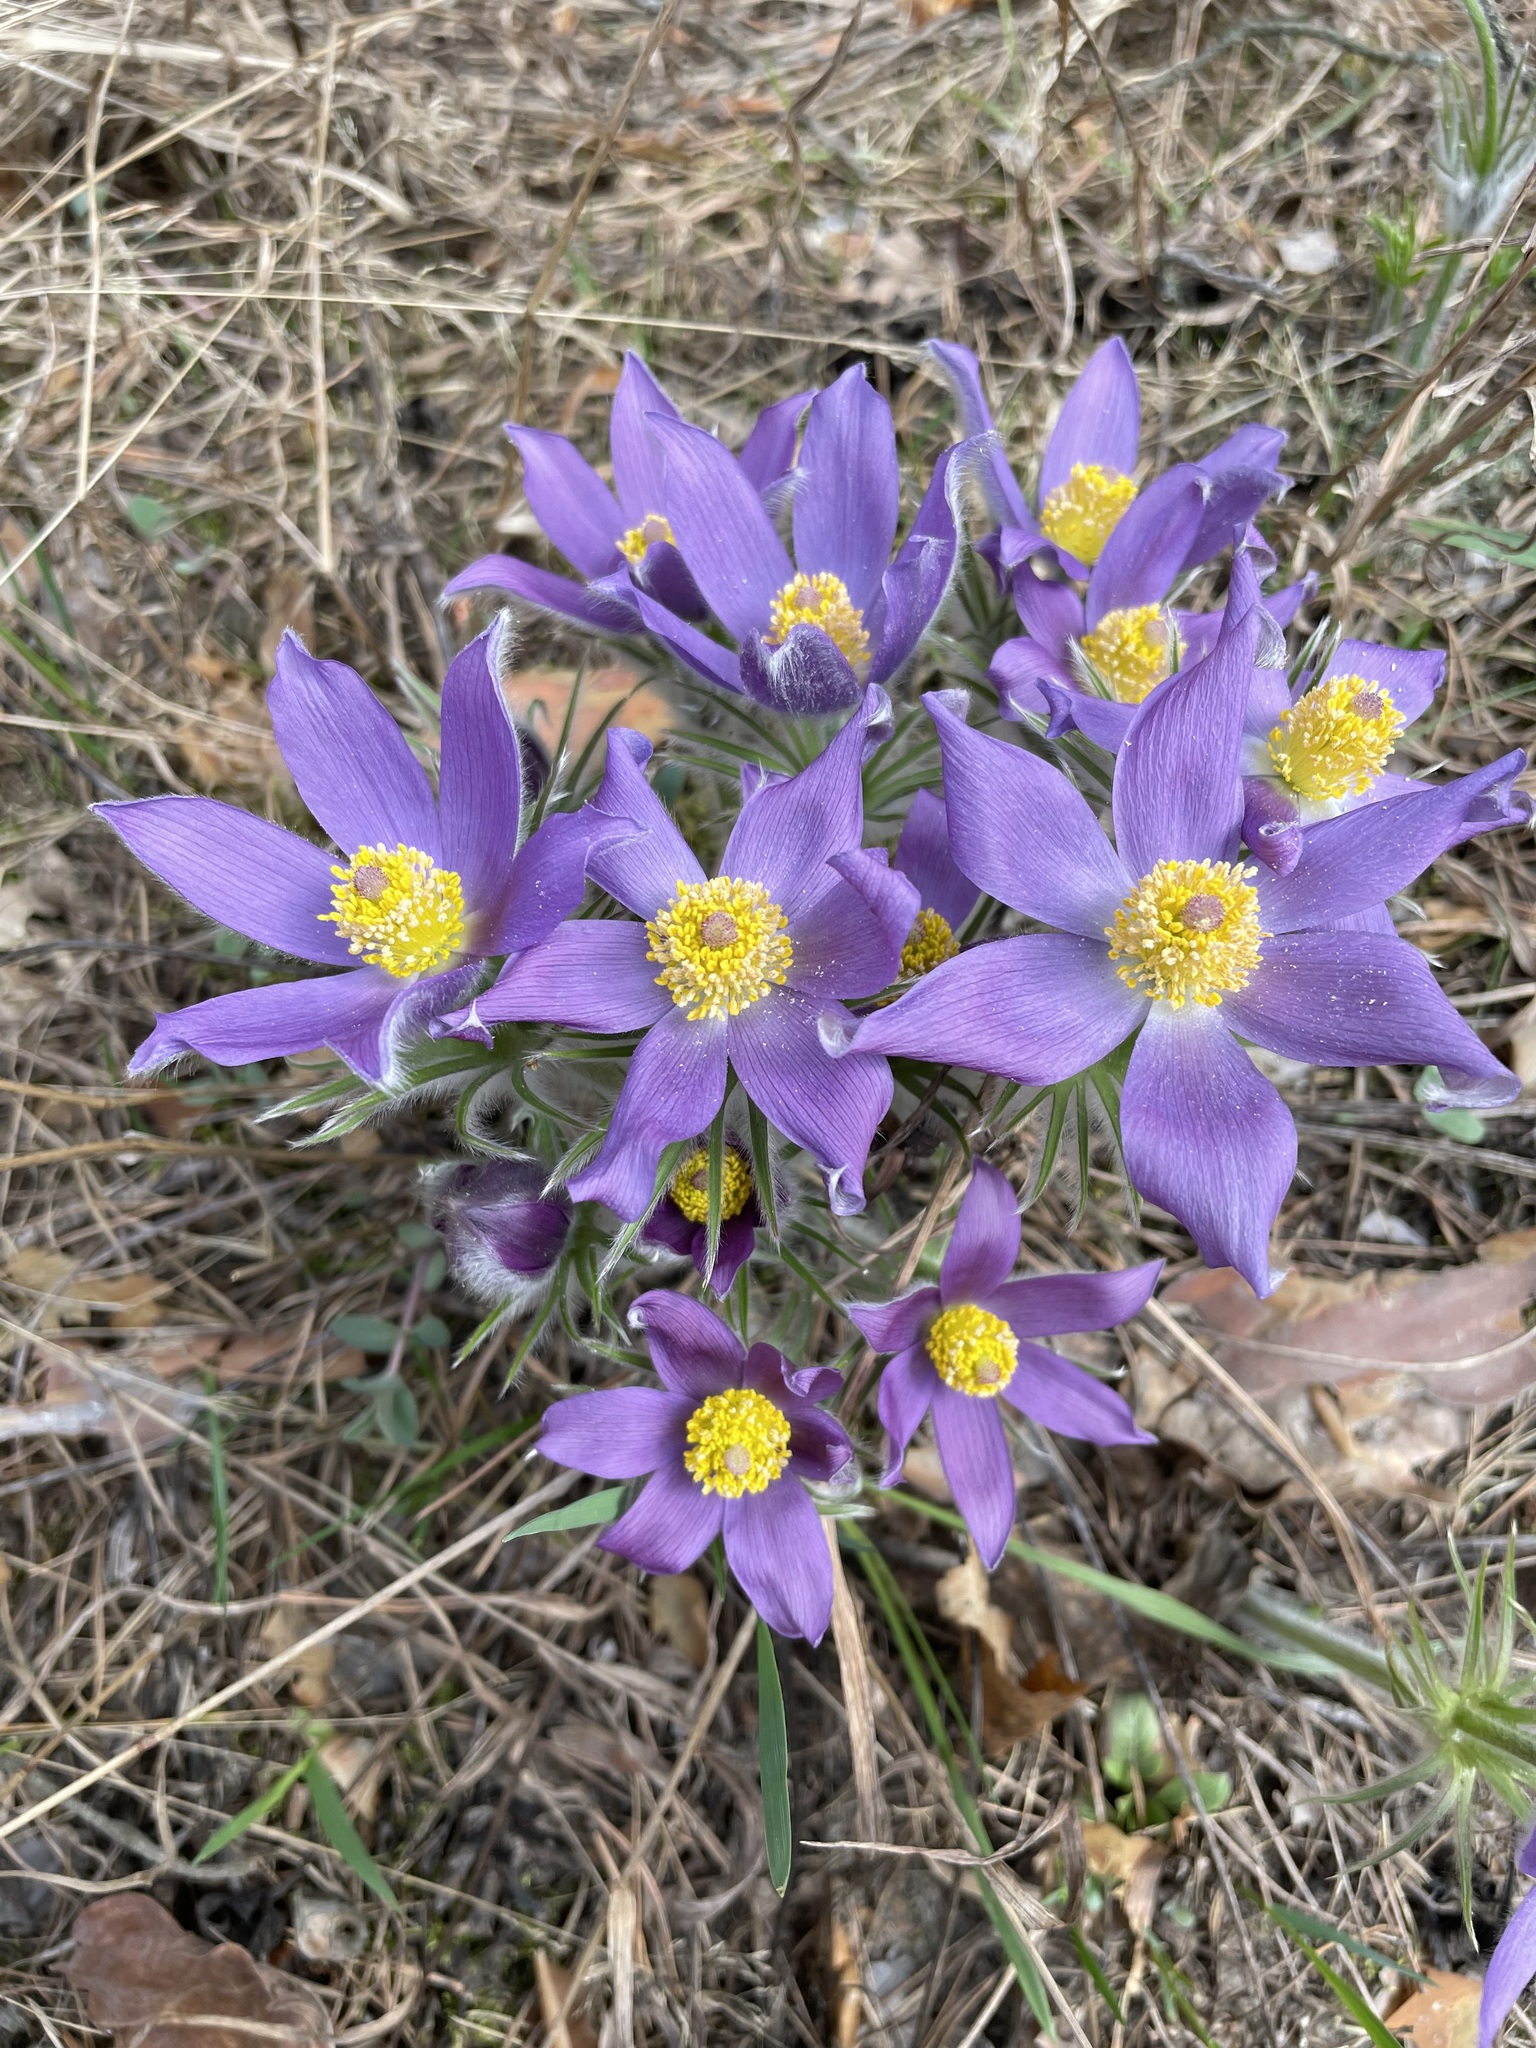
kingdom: Plantae
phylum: Tracheophyta
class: Magnoliopsida
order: Ranunculales
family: Ranunculaceae
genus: Pulsatilla
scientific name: Pulsatilla patens
